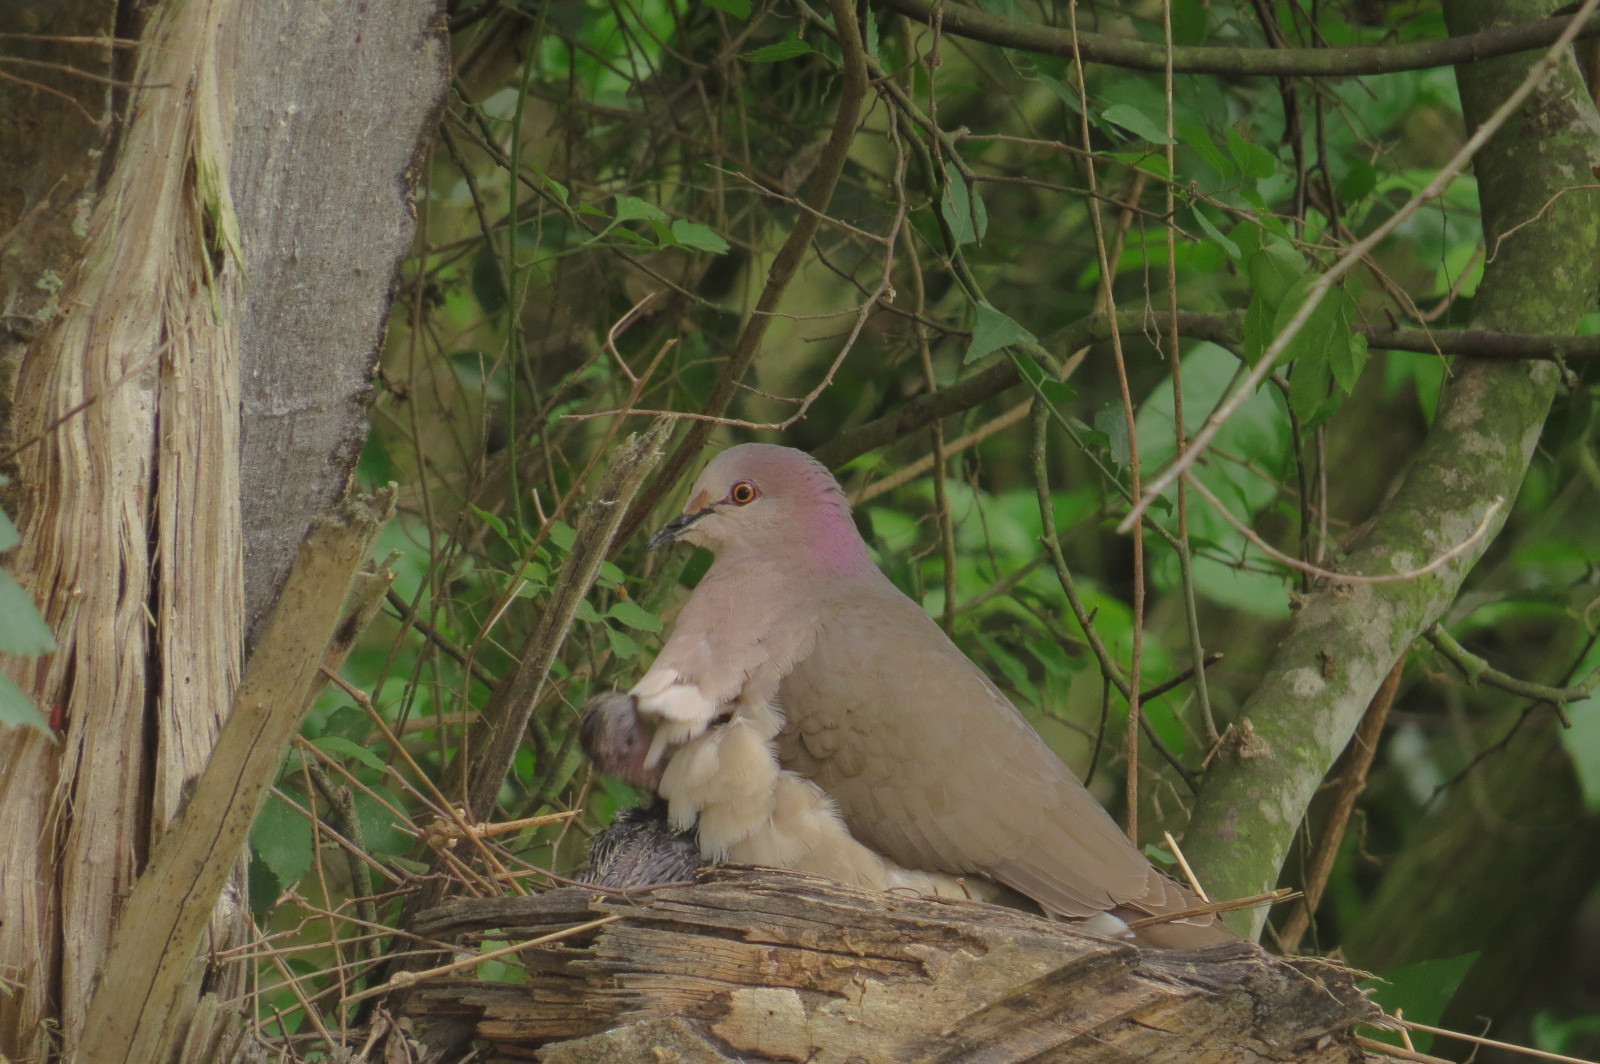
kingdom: Animalia
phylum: Chordata
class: Aves
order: Columbiformes
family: Columbidae
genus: Leptotila
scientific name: Leptotila verreauxi
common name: White-tipped dove
